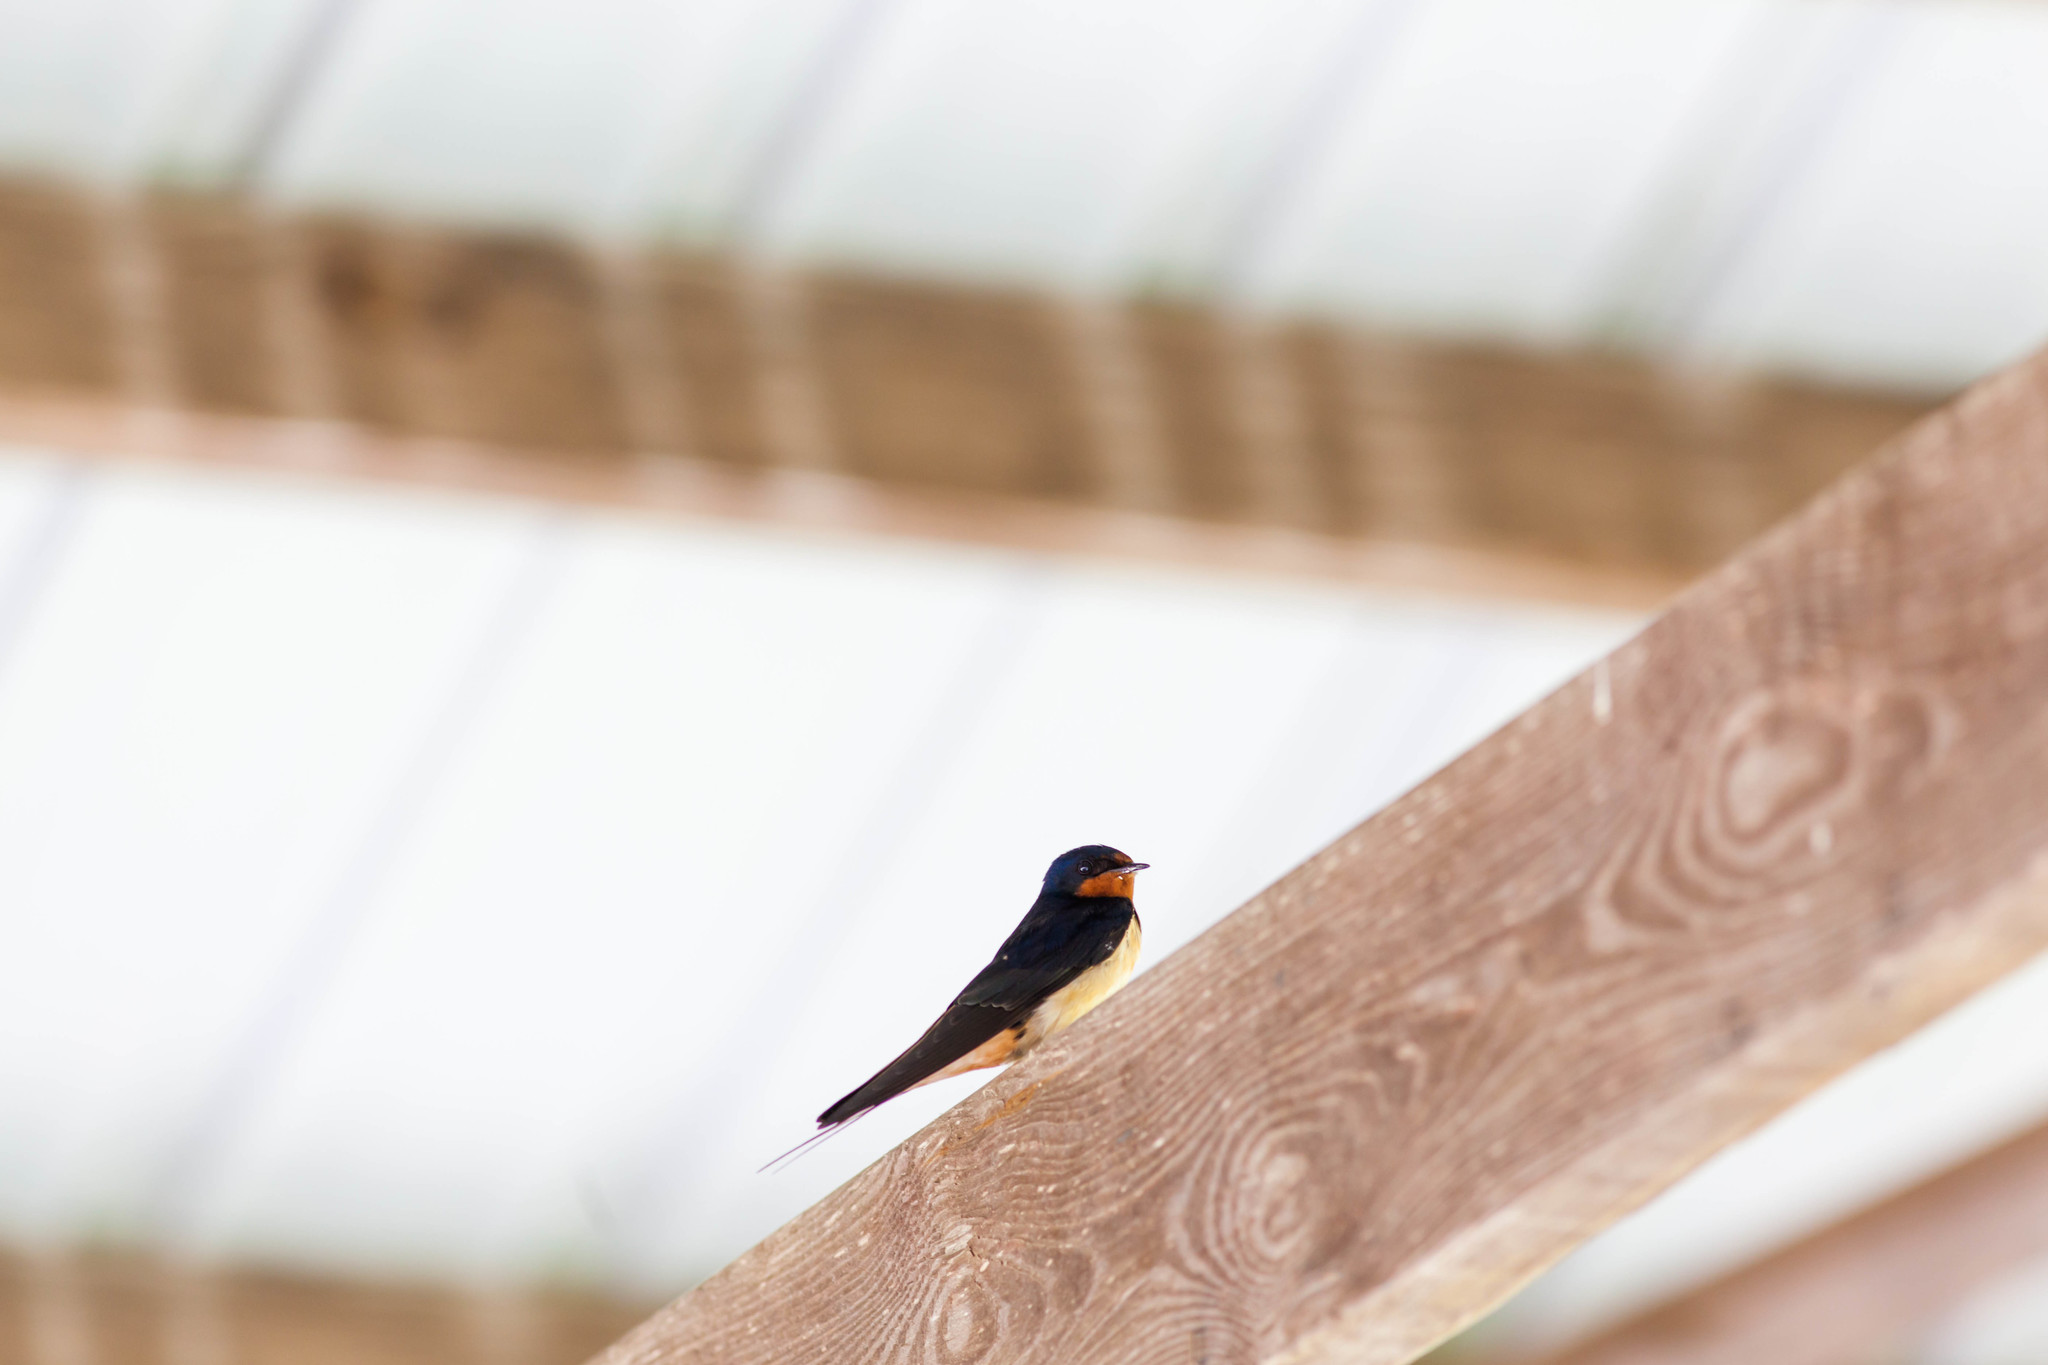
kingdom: Animalia
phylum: Chordata
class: Aves
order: Passeriformes
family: Hirundinidae
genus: Hirundo
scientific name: Hirundo rustica
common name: Barn swallow
